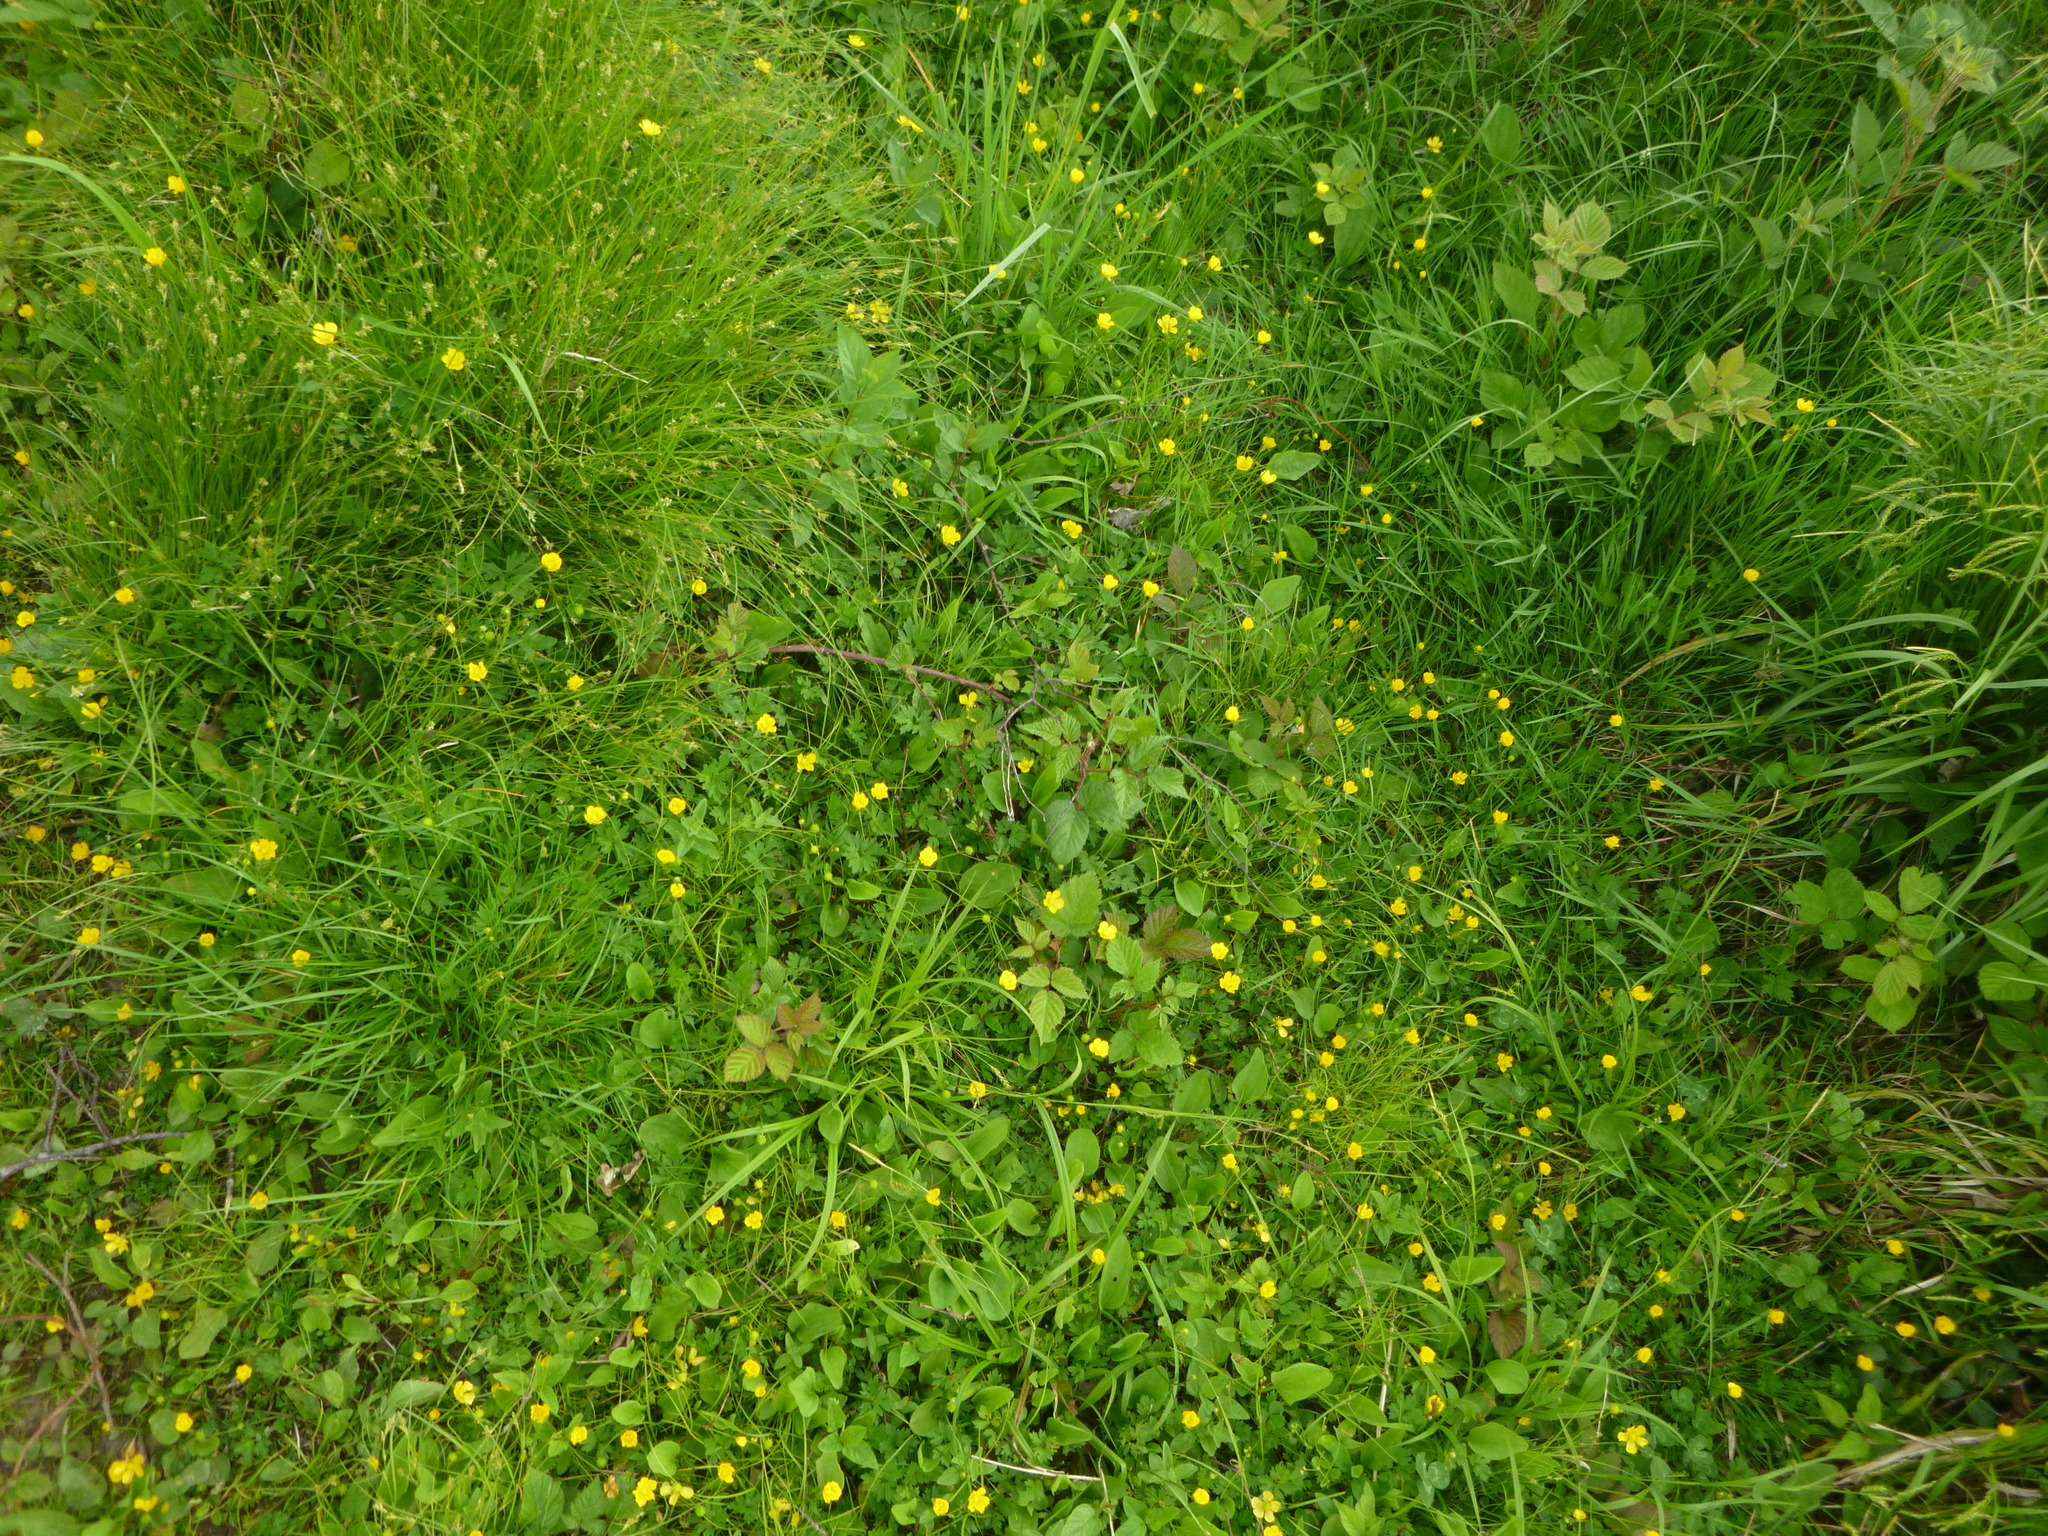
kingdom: Plantae
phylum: Tracheophyta
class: Magnoliopsida
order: Ranunculales
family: Ranunculaceae
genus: Ranunculus
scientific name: Ranunculus repens
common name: Creeping buttercup
